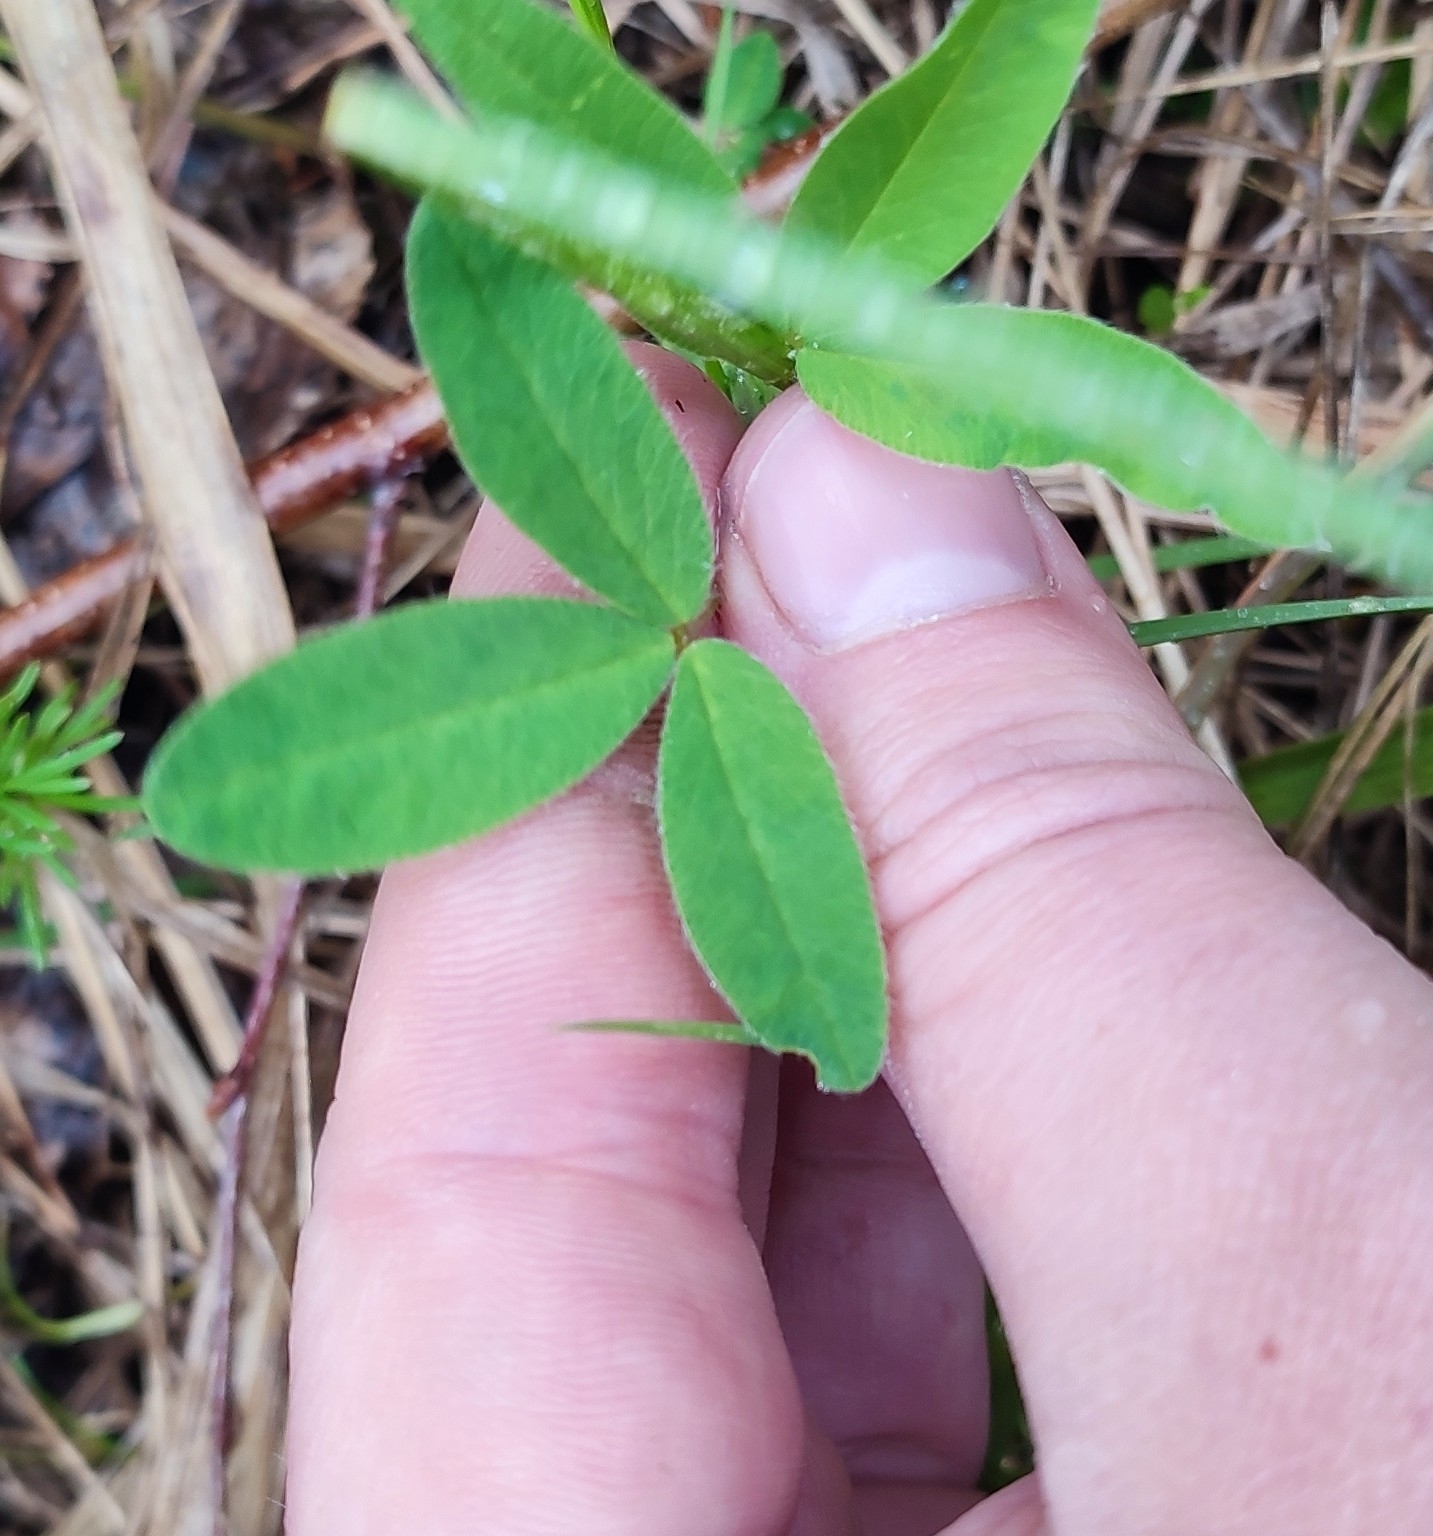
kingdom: Plantae
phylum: Tracheophyta
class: Magnoliopsida
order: Fabales
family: Fabaceae
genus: Trifolium
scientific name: Trifolium medium
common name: Zigzag clover
